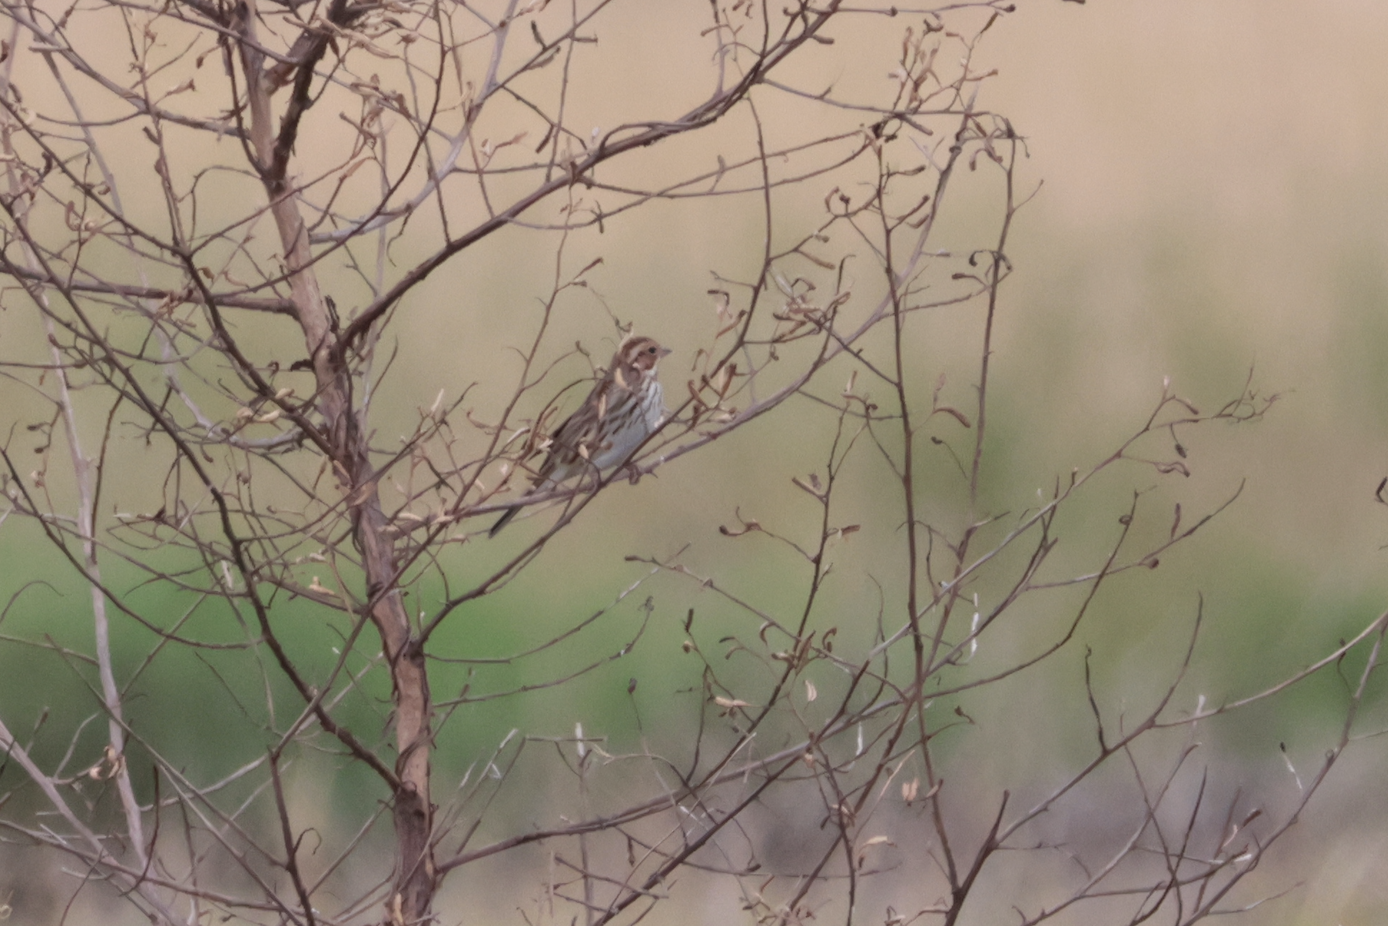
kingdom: Animalia
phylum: Chordata
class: Aves
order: Passeriformes
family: Emberizidae
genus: Emberiza
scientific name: Emberiza pusilla
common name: Little bunting
